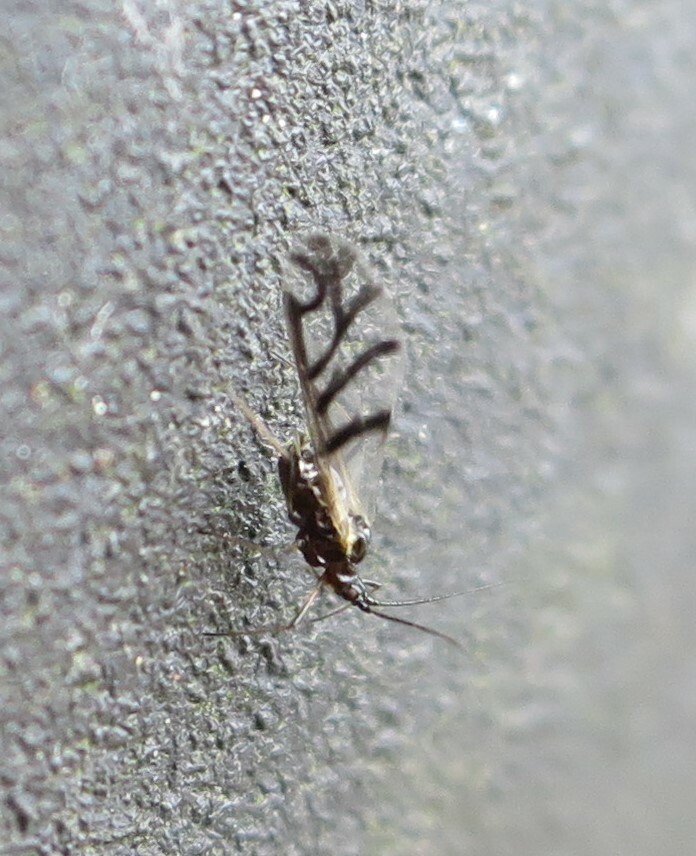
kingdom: Animalia
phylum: Arthropoda
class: Insecta
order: Hemiptera
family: Aphididae
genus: Neotoxoptera
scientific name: Neotoxoptera formosana
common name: Onion aphid
